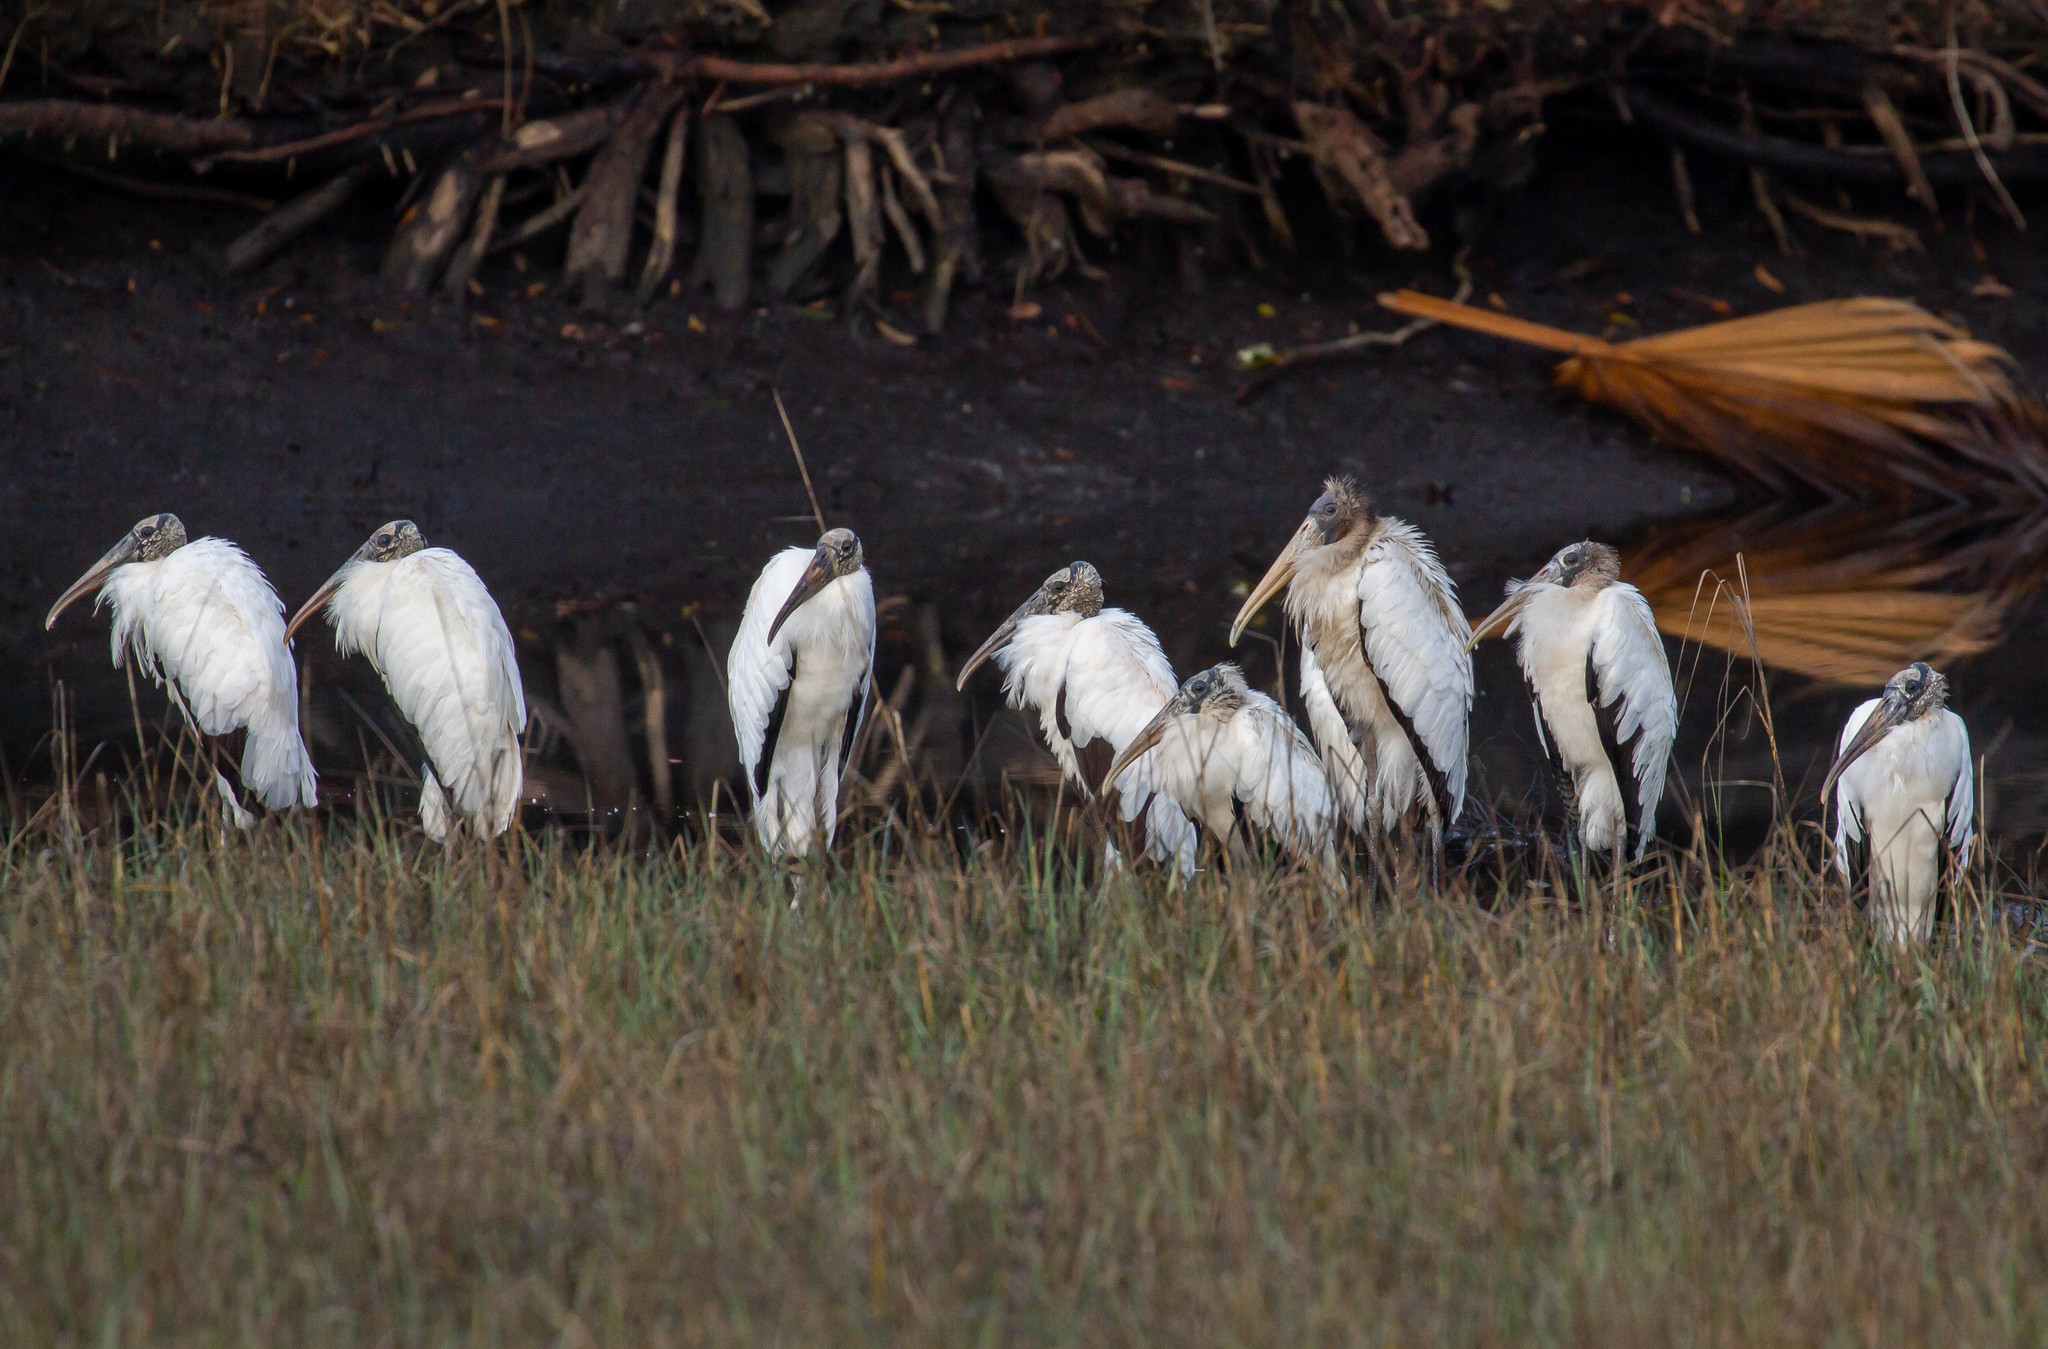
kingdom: Animalia
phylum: Chordata
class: Aves
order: Ciconiiformes
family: Ciconiidae
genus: Mycteria
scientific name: Mycteria americana
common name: Wood stork
